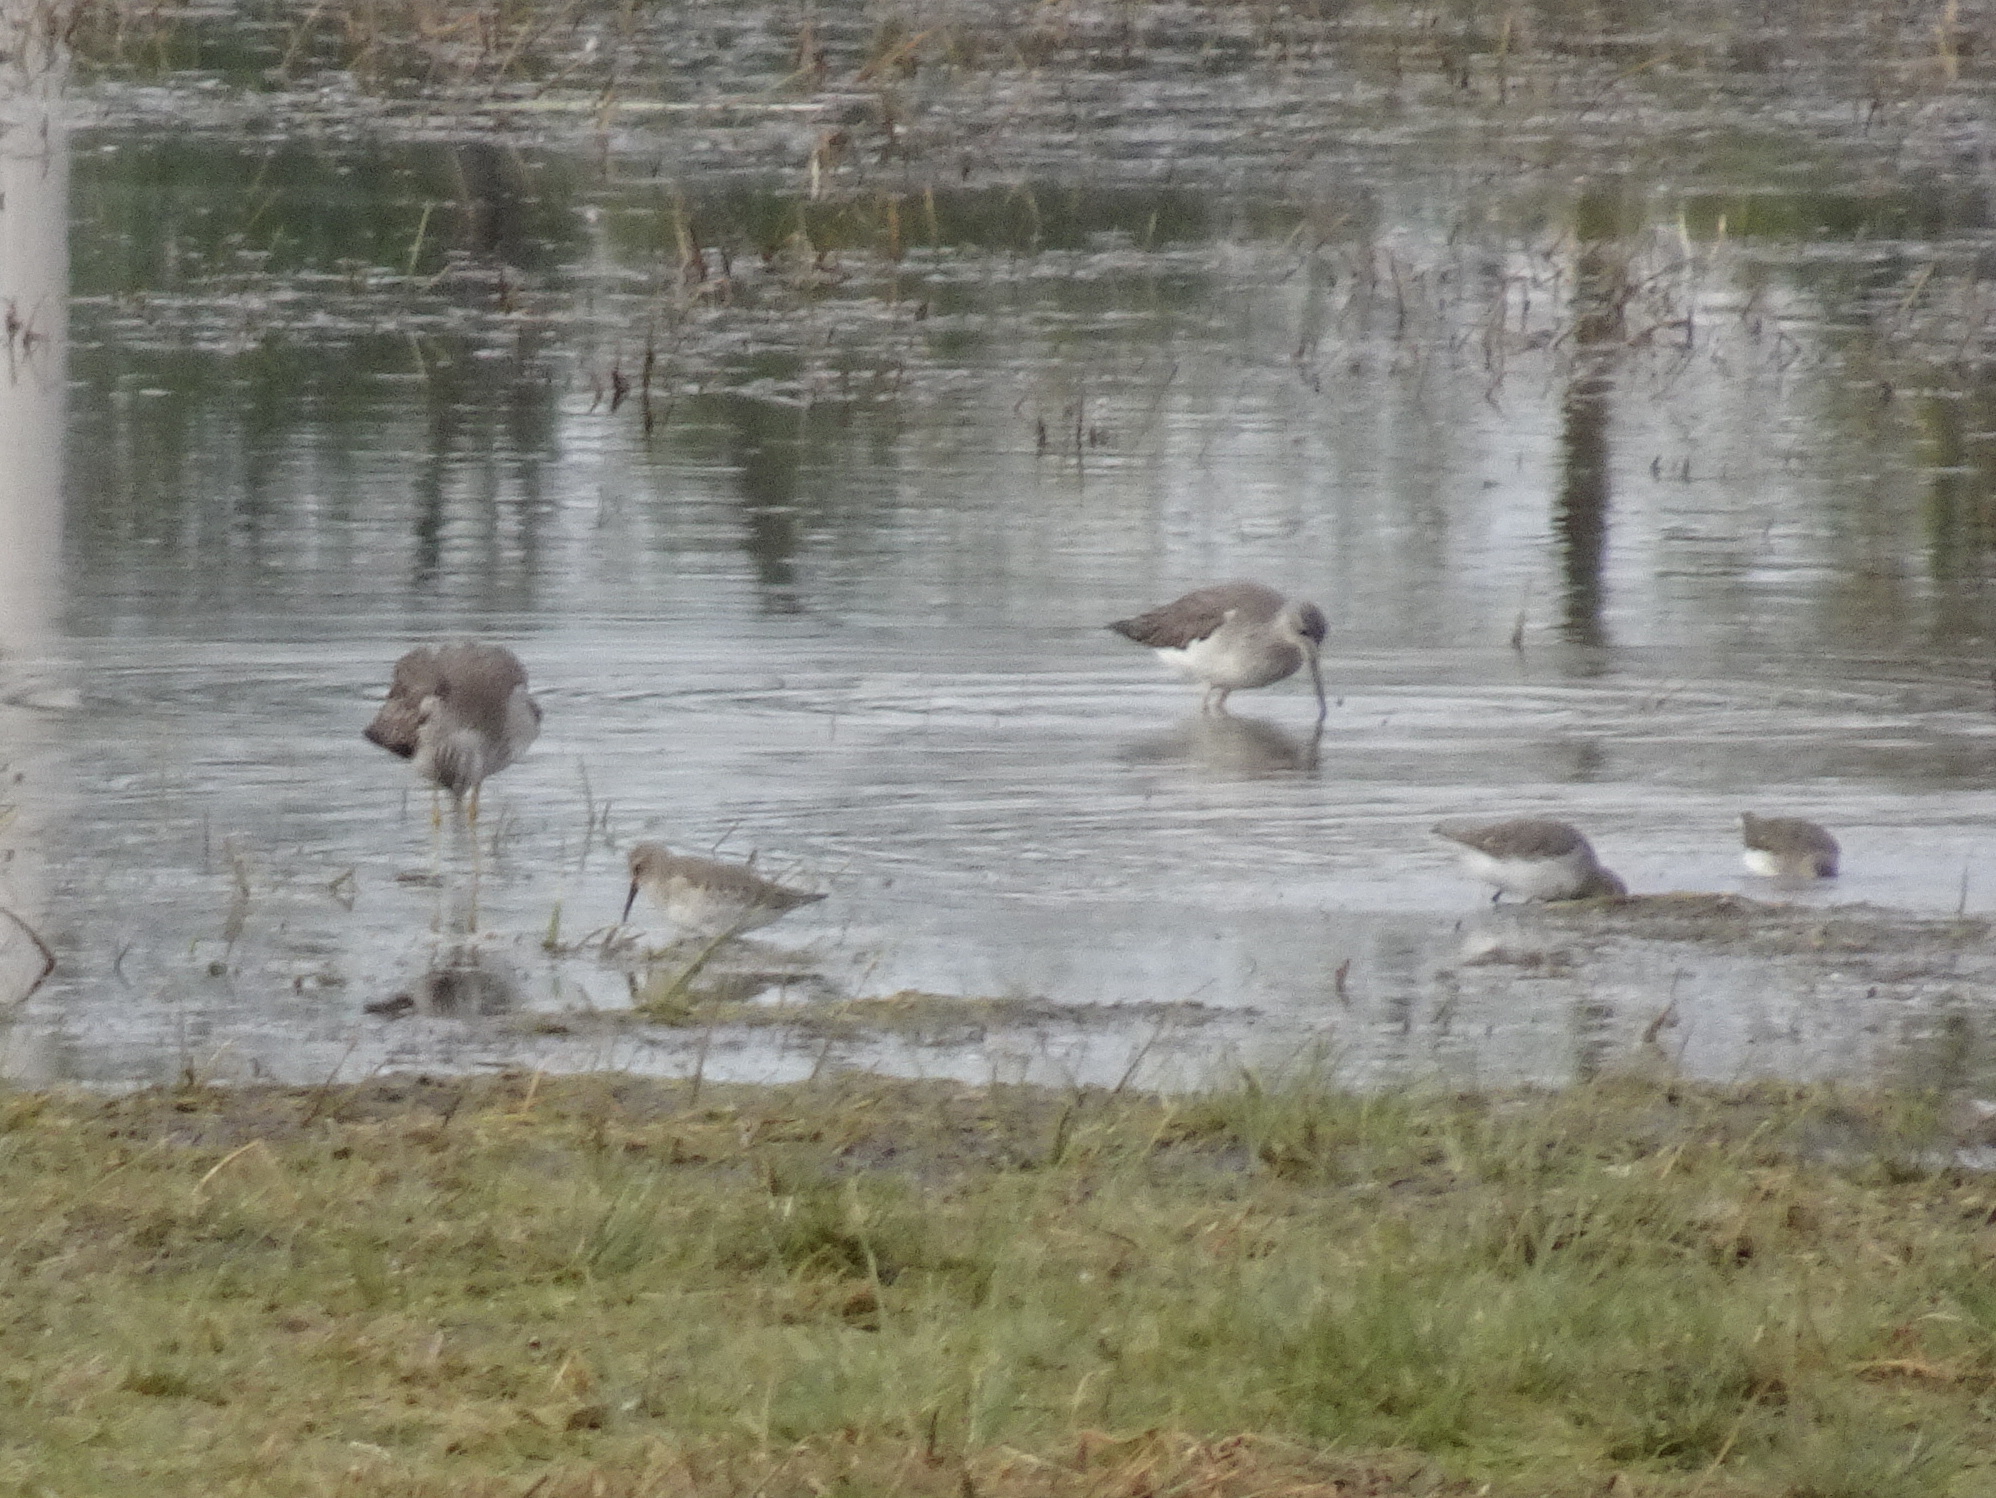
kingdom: Animalia
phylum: Chordata
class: Aves
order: Charadriiformes
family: Scolopacidae
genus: Calidris
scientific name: Calidris alpina
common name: Dunlin
